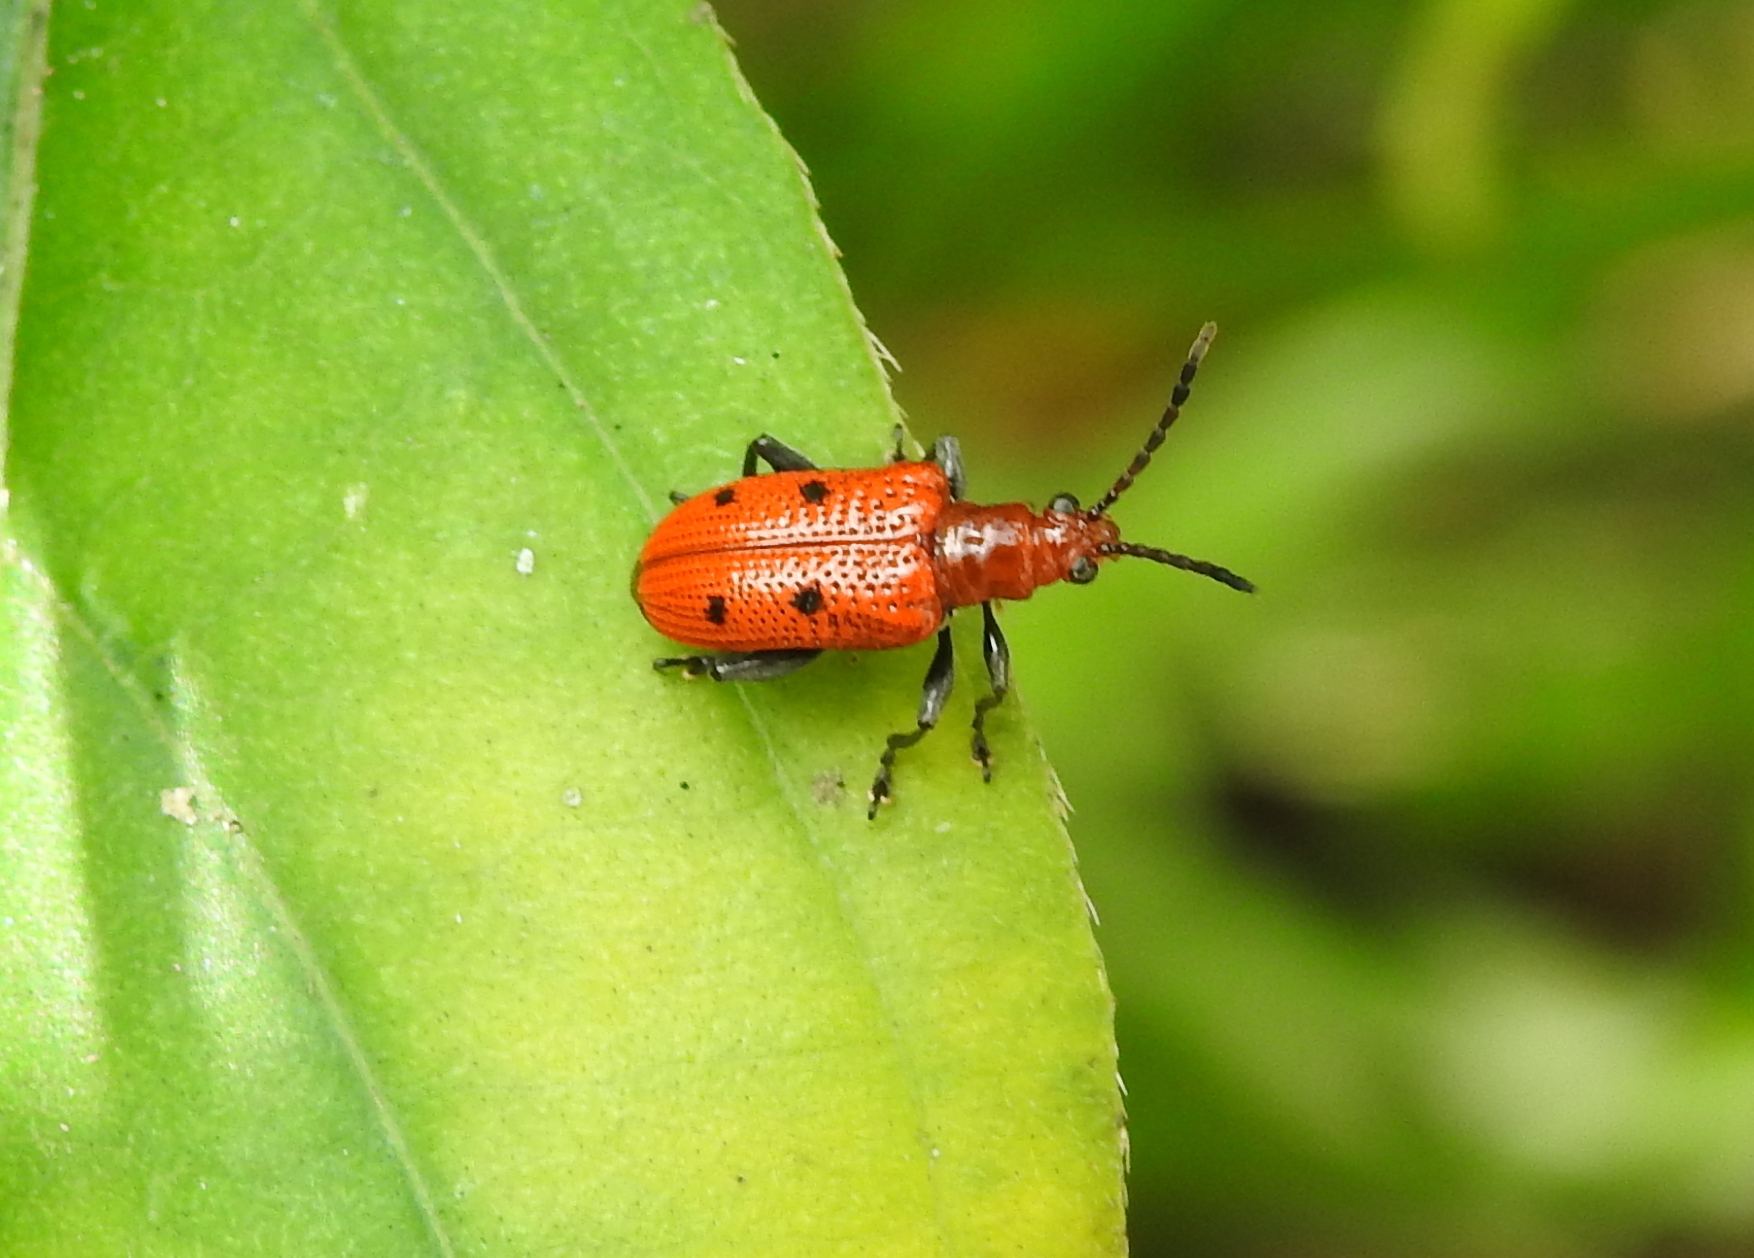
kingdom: Animalia
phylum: Arthropoda
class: Insecta
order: Coleoptera
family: Chrysomelidae
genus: Lema
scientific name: Lema
